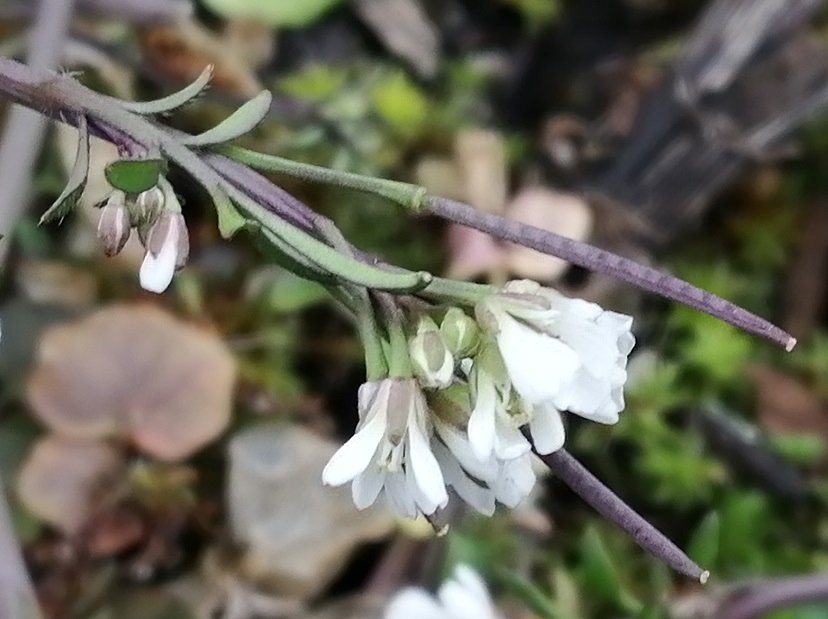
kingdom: Plantae
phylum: Tracheophyta
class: Magnoliopsida
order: Brassicales
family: Brassicaceae
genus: Cardamine
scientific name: Cardamine hirsuta
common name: Hairy bittercress
